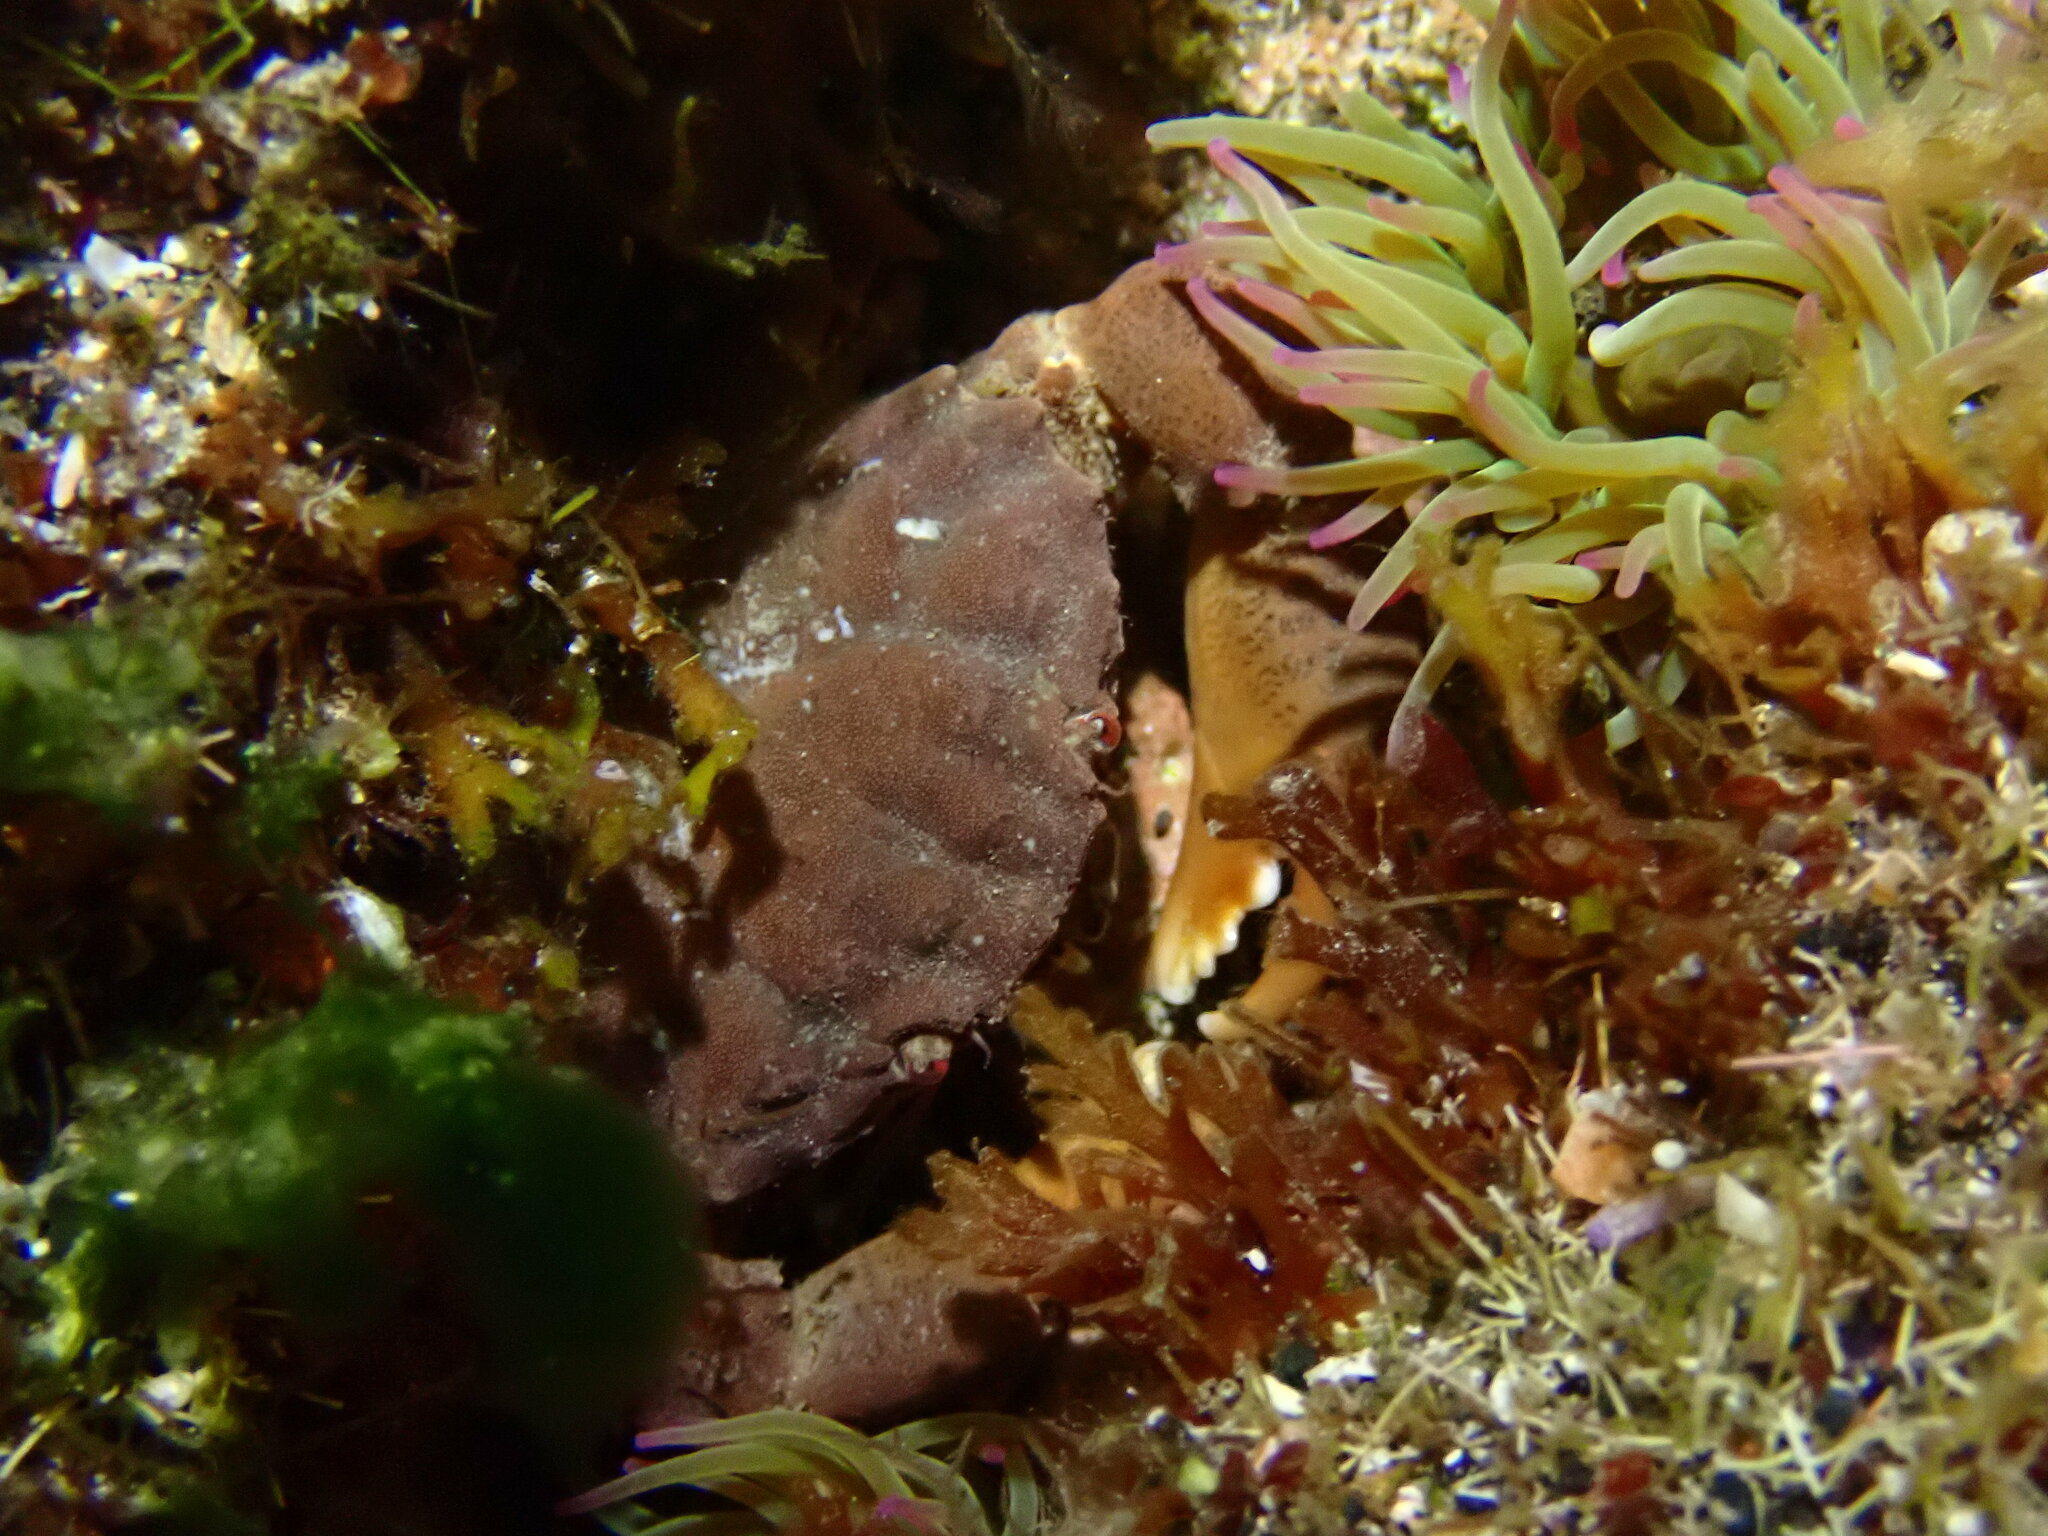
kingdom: Animalia
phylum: Arthropoda
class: Malacostraca
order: Decapoda
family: Xanthidae
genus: Xantho
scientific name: Xantho hydrophilus
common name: Montagu's crab
